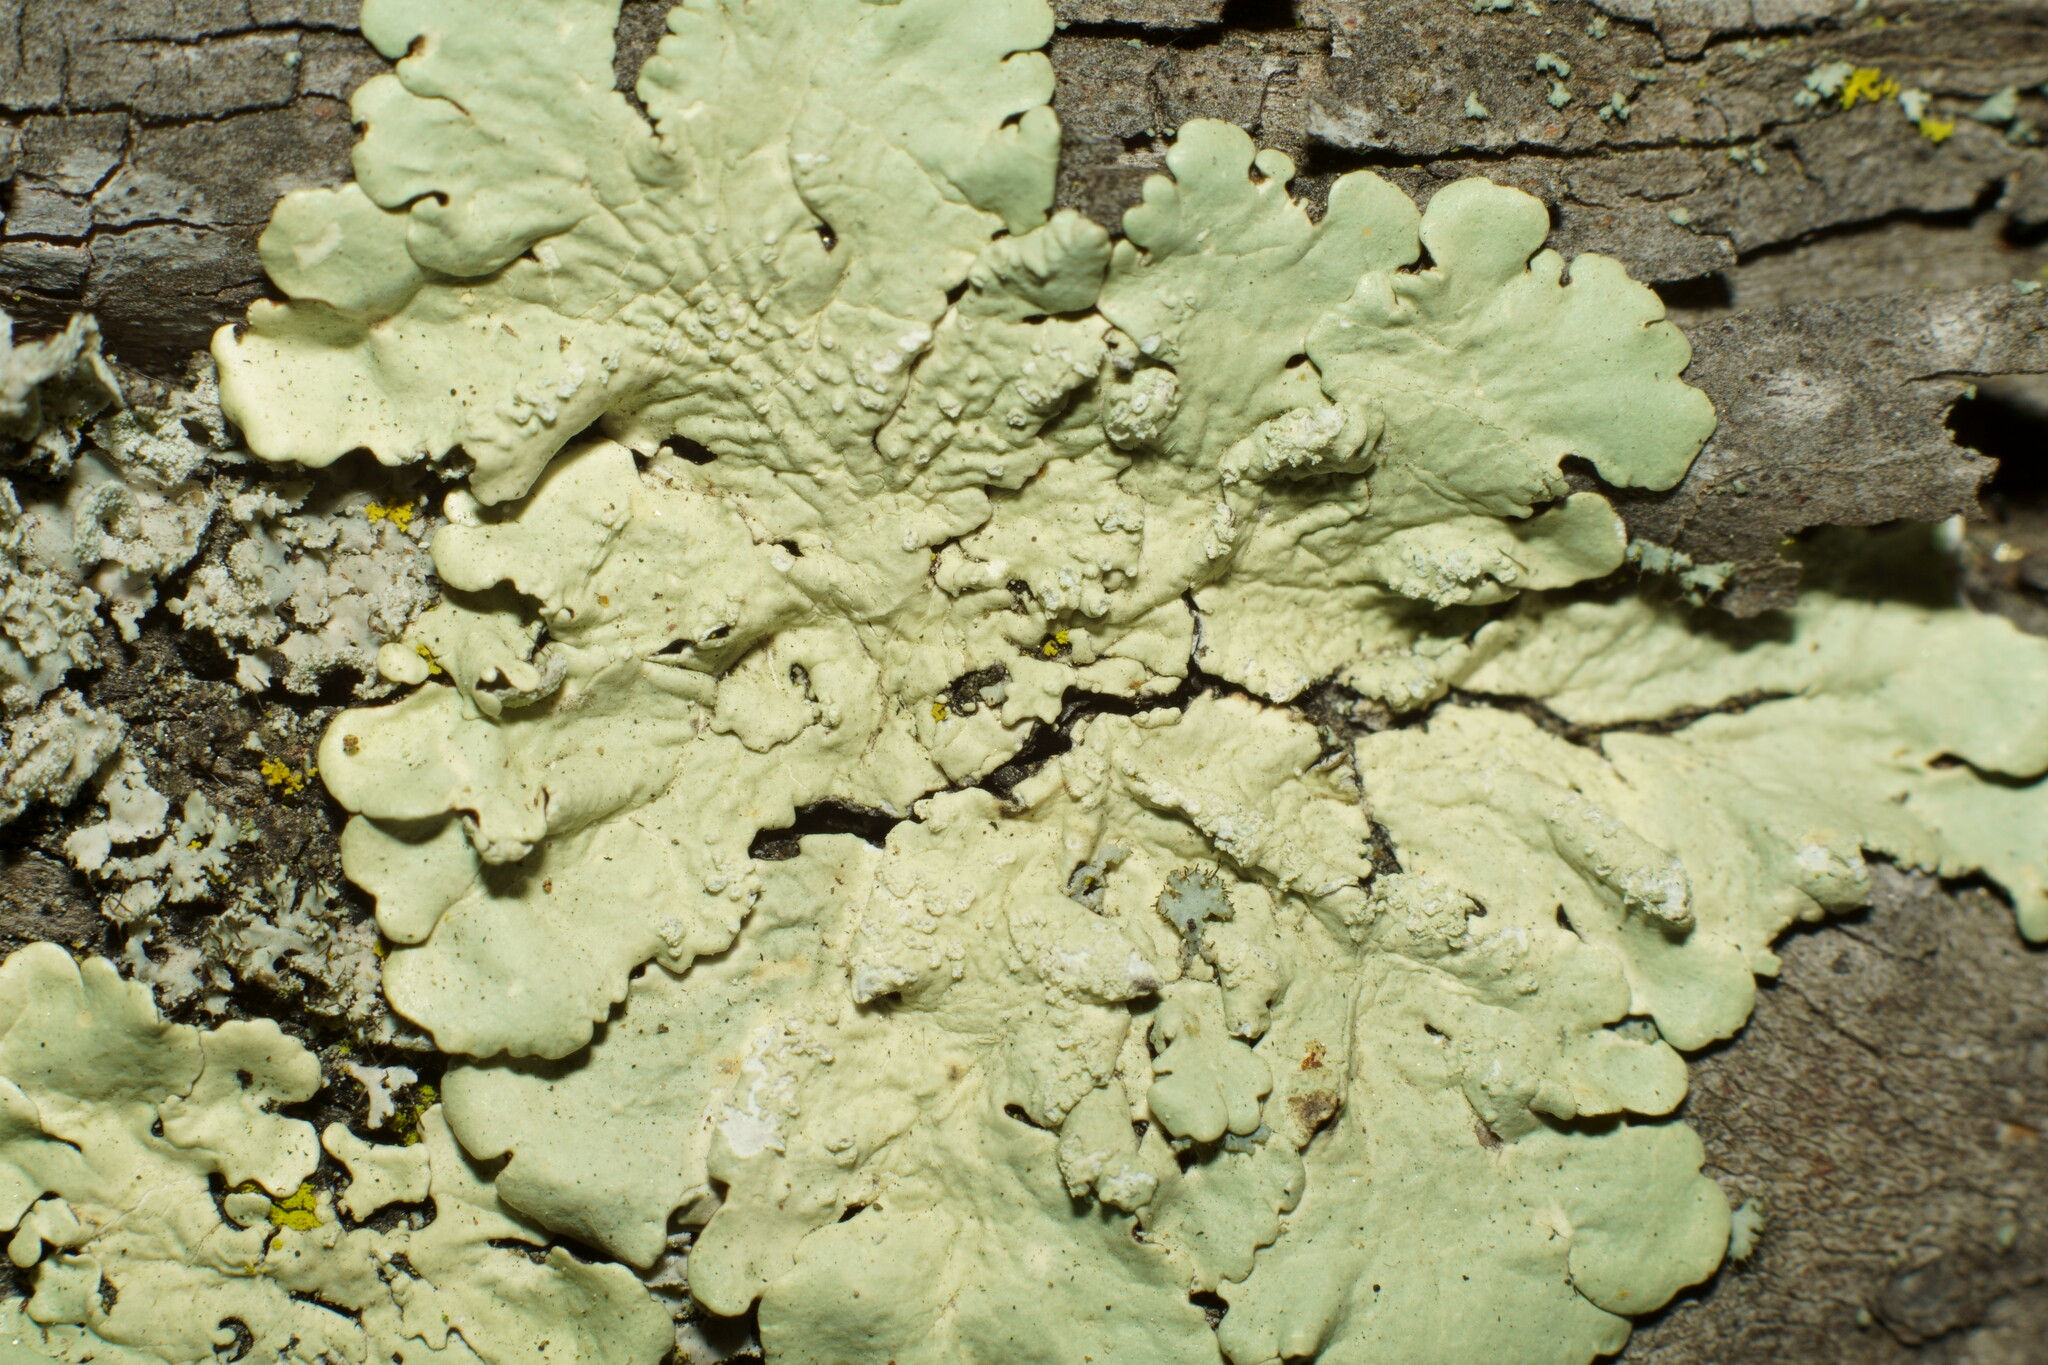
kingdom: Fungi
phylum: Ascomycota
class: Lecanoromycetes
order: Lecanorales
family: Parmeliaceae
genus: Flavoparmelia
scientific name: Flavoparmelia caperata
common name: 40-mile per hour lichen
